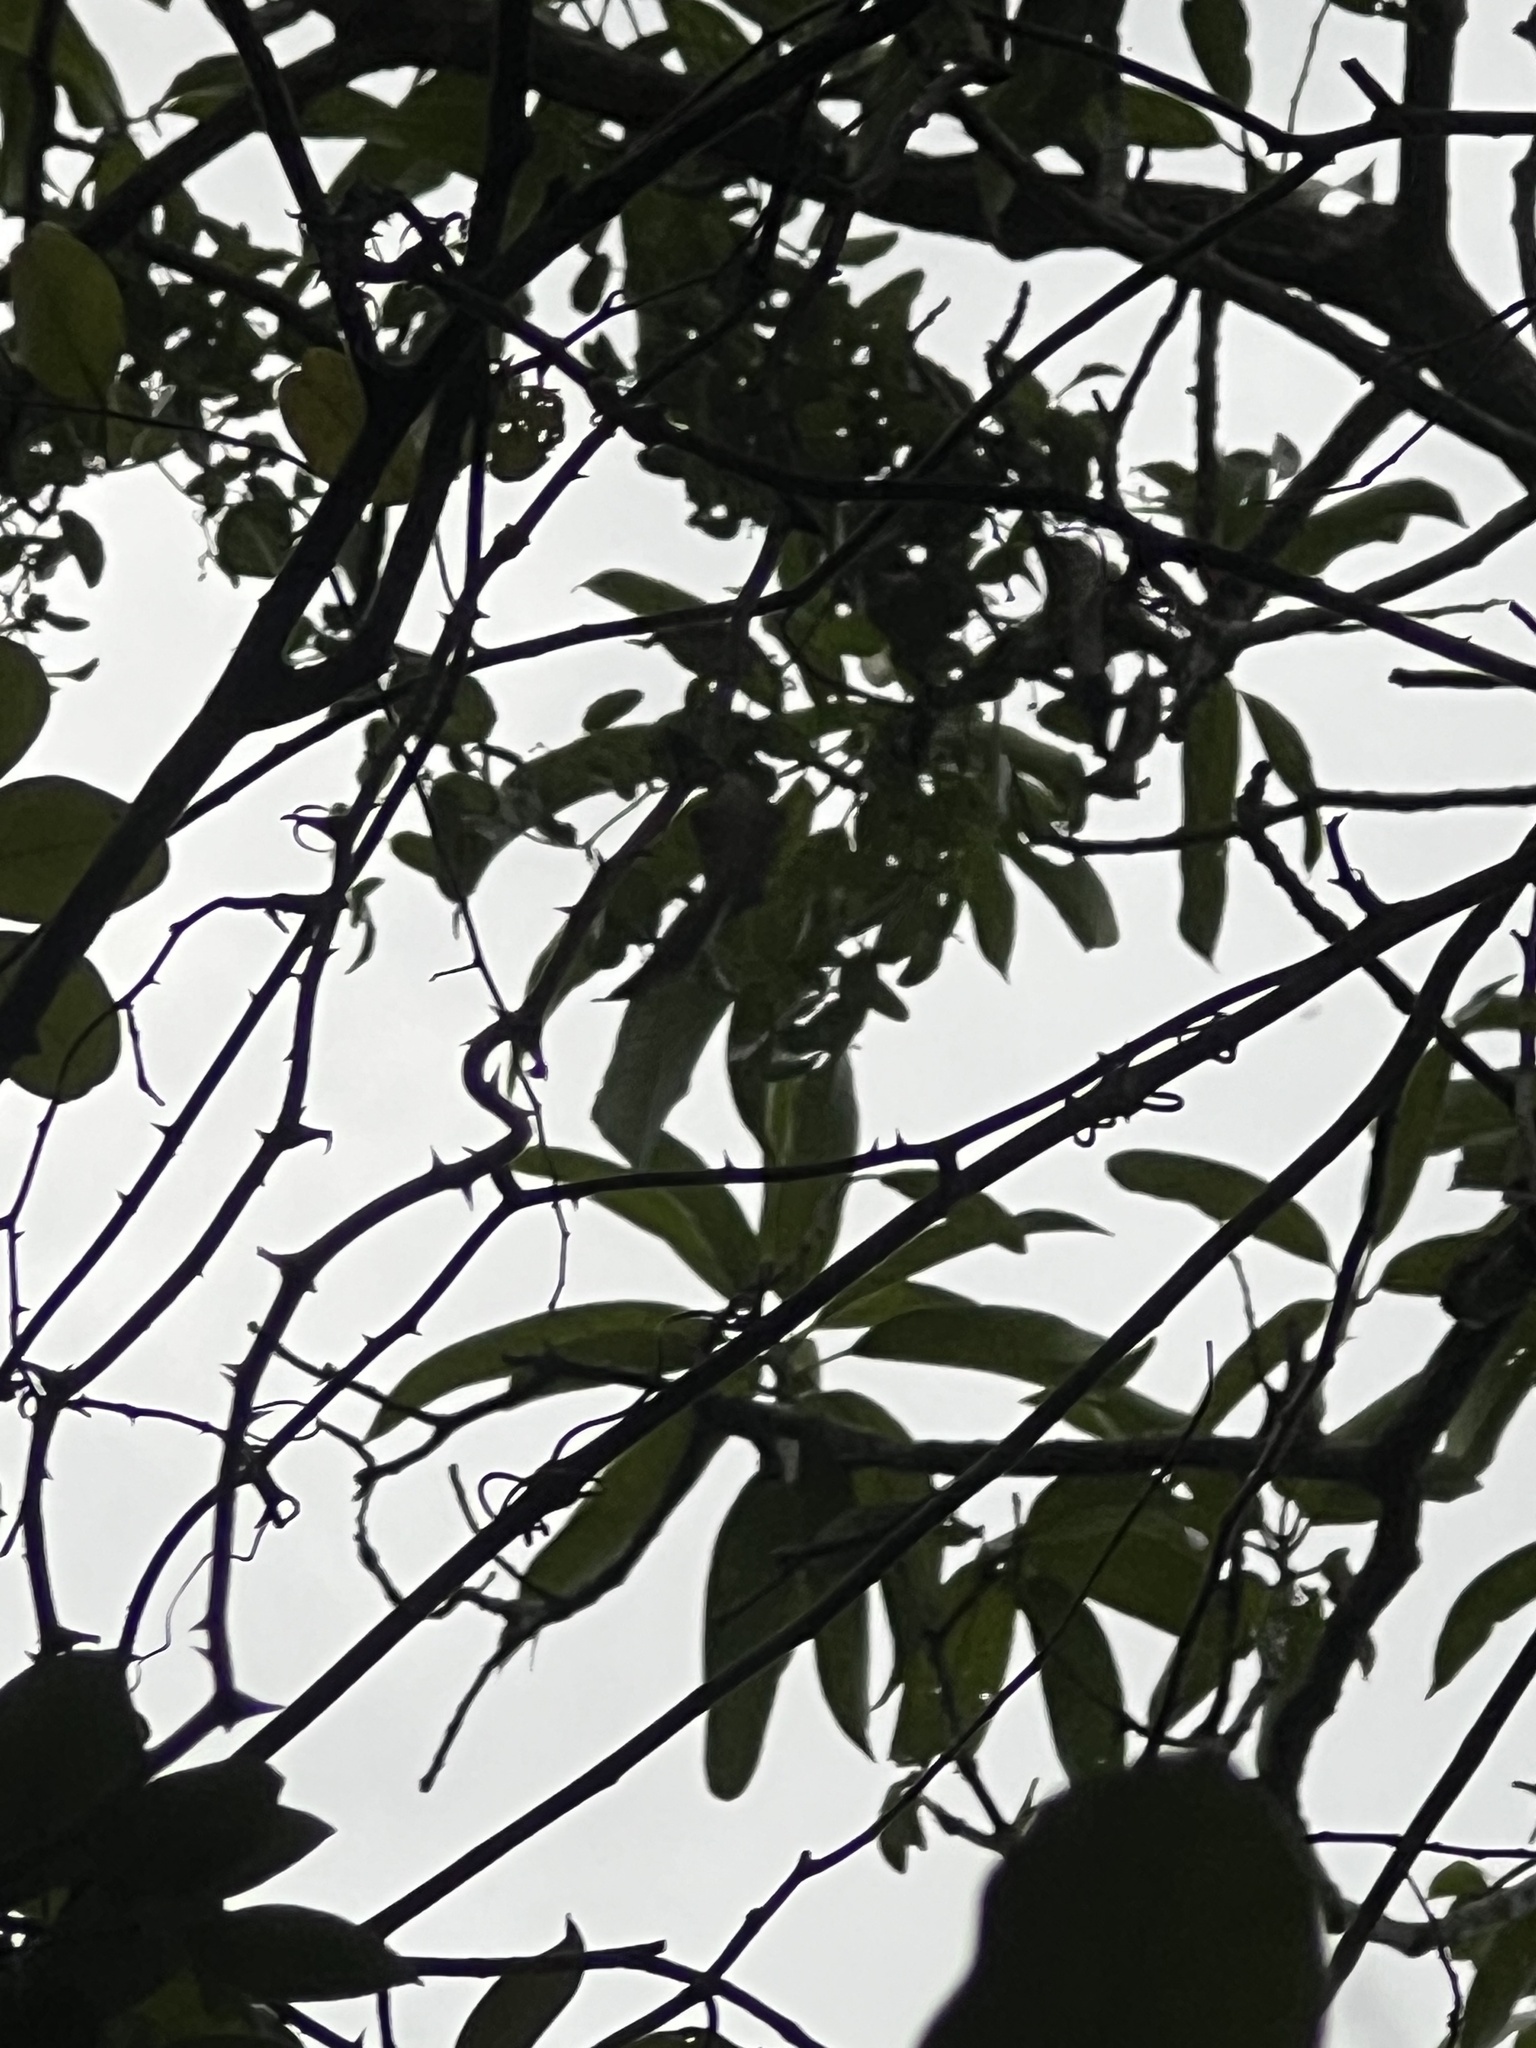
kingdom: Plantae
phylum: Tracheophyta
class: Liliopsida
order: Liliales
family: Smilacaceae
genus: Smilax
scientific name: Smilax havanensis
